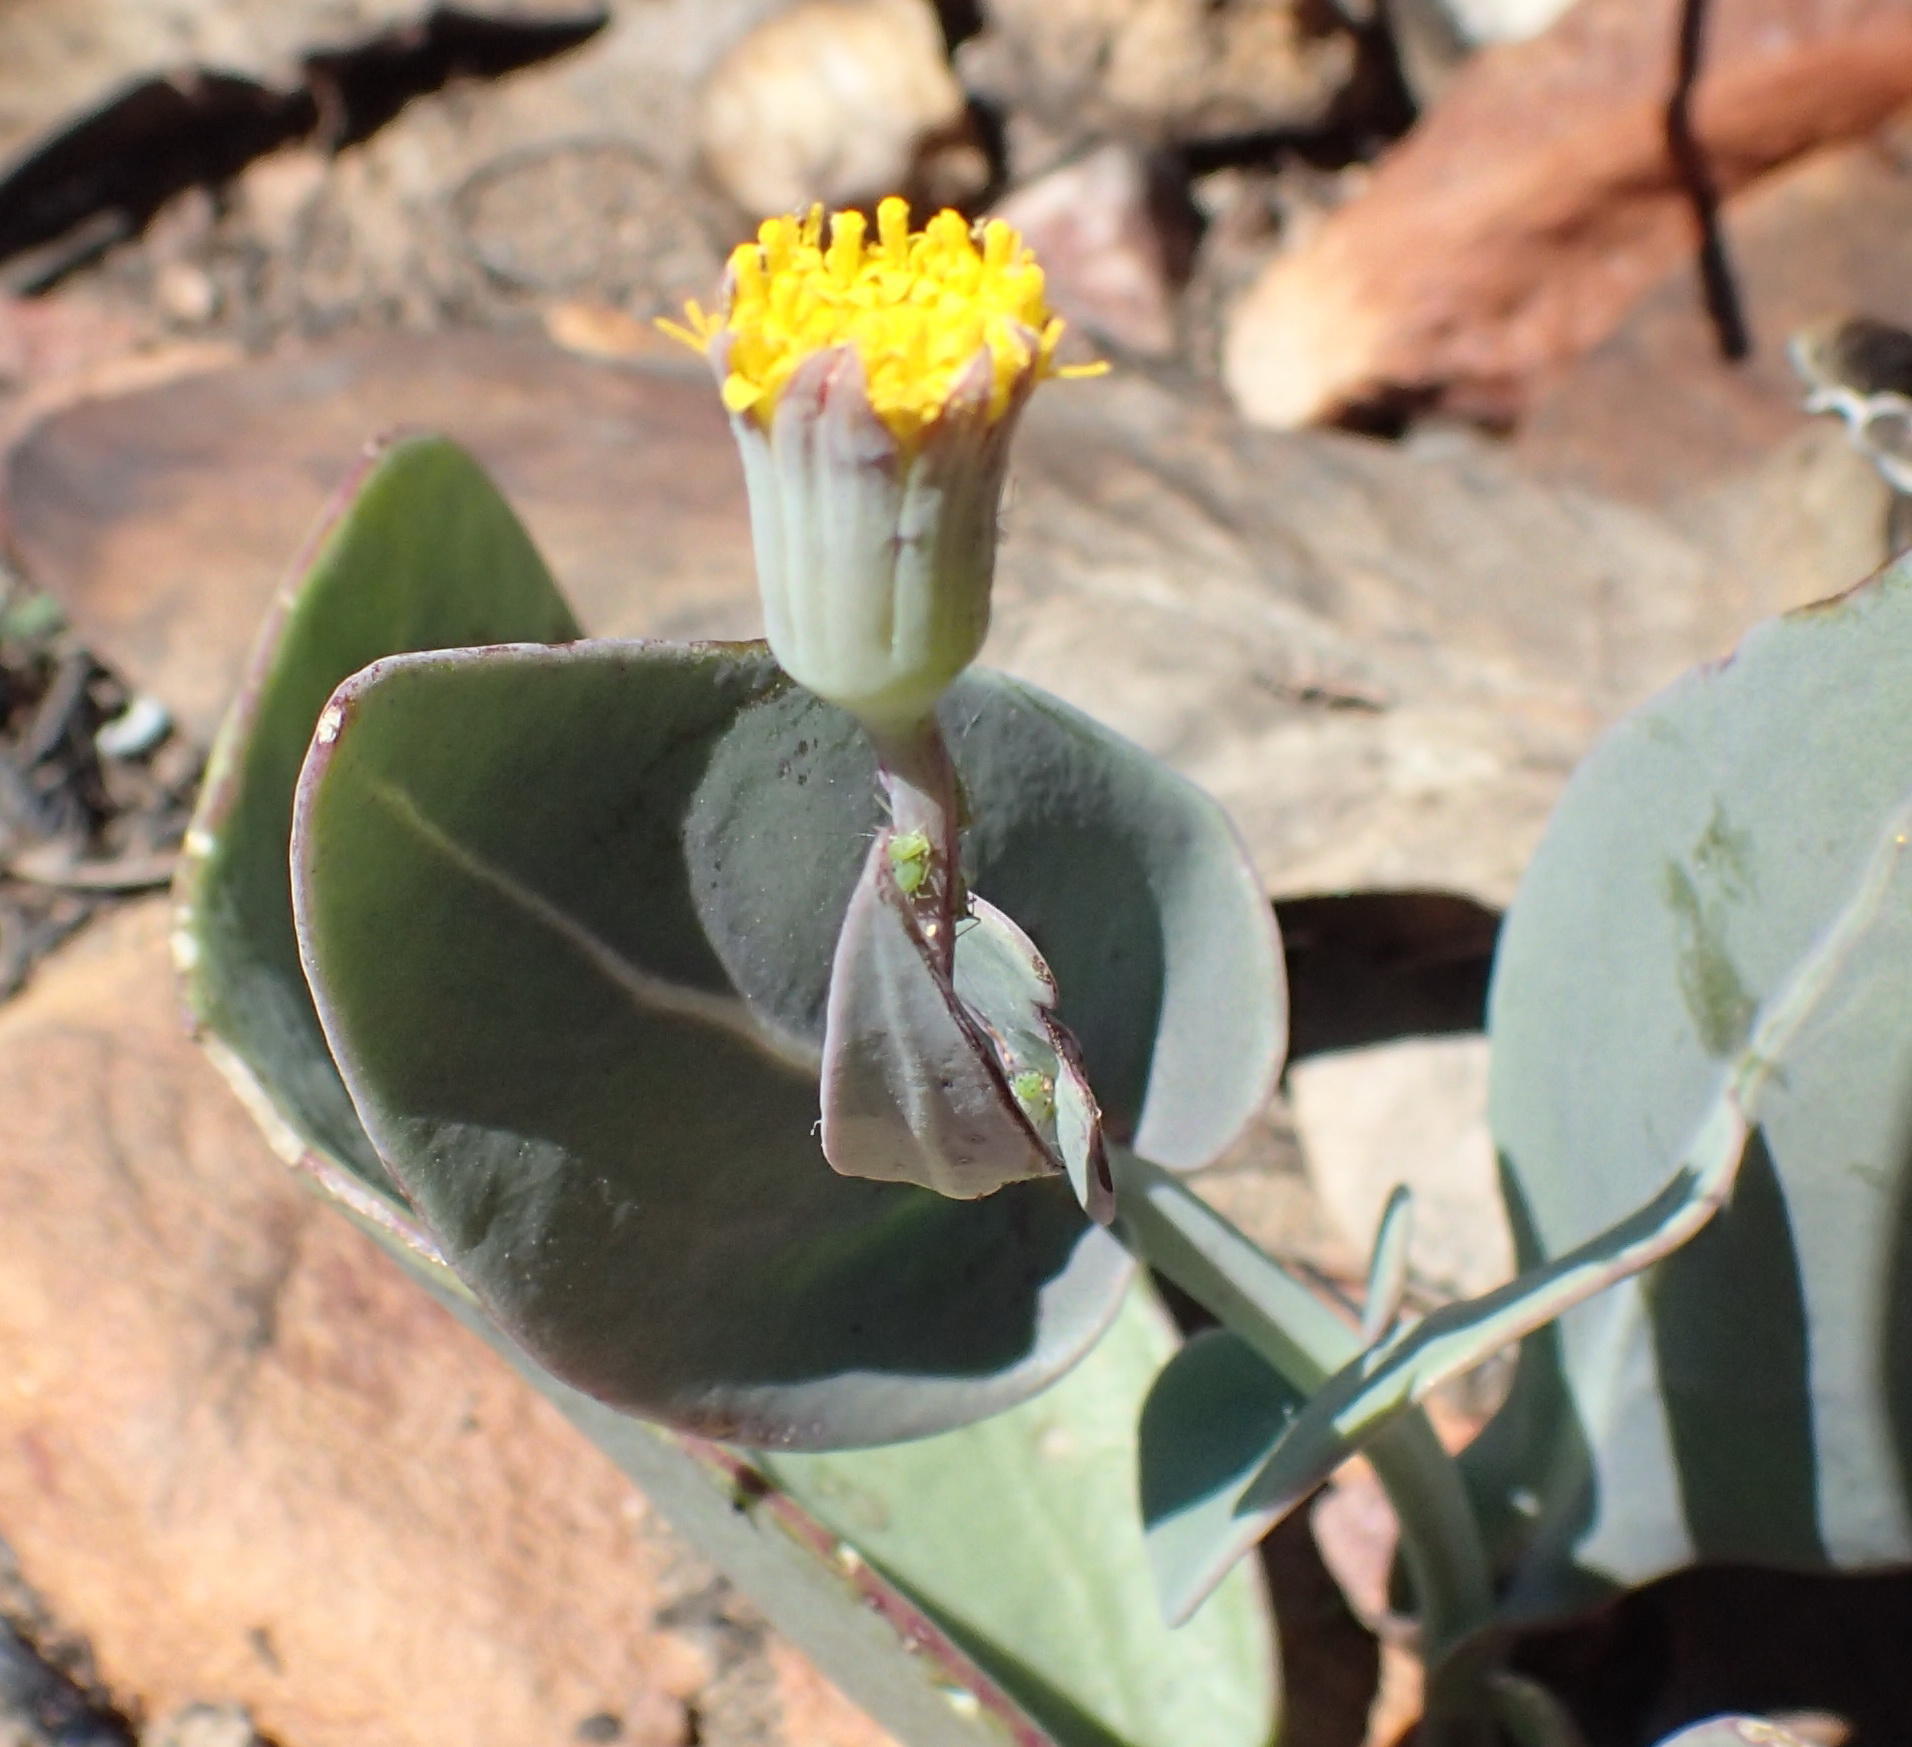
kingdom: Plantae
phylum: Tracheophyta
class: Magnoliopsida
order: Asterales
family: Asteraceae
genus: Othonna
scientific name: Othonna gymnodiscus
